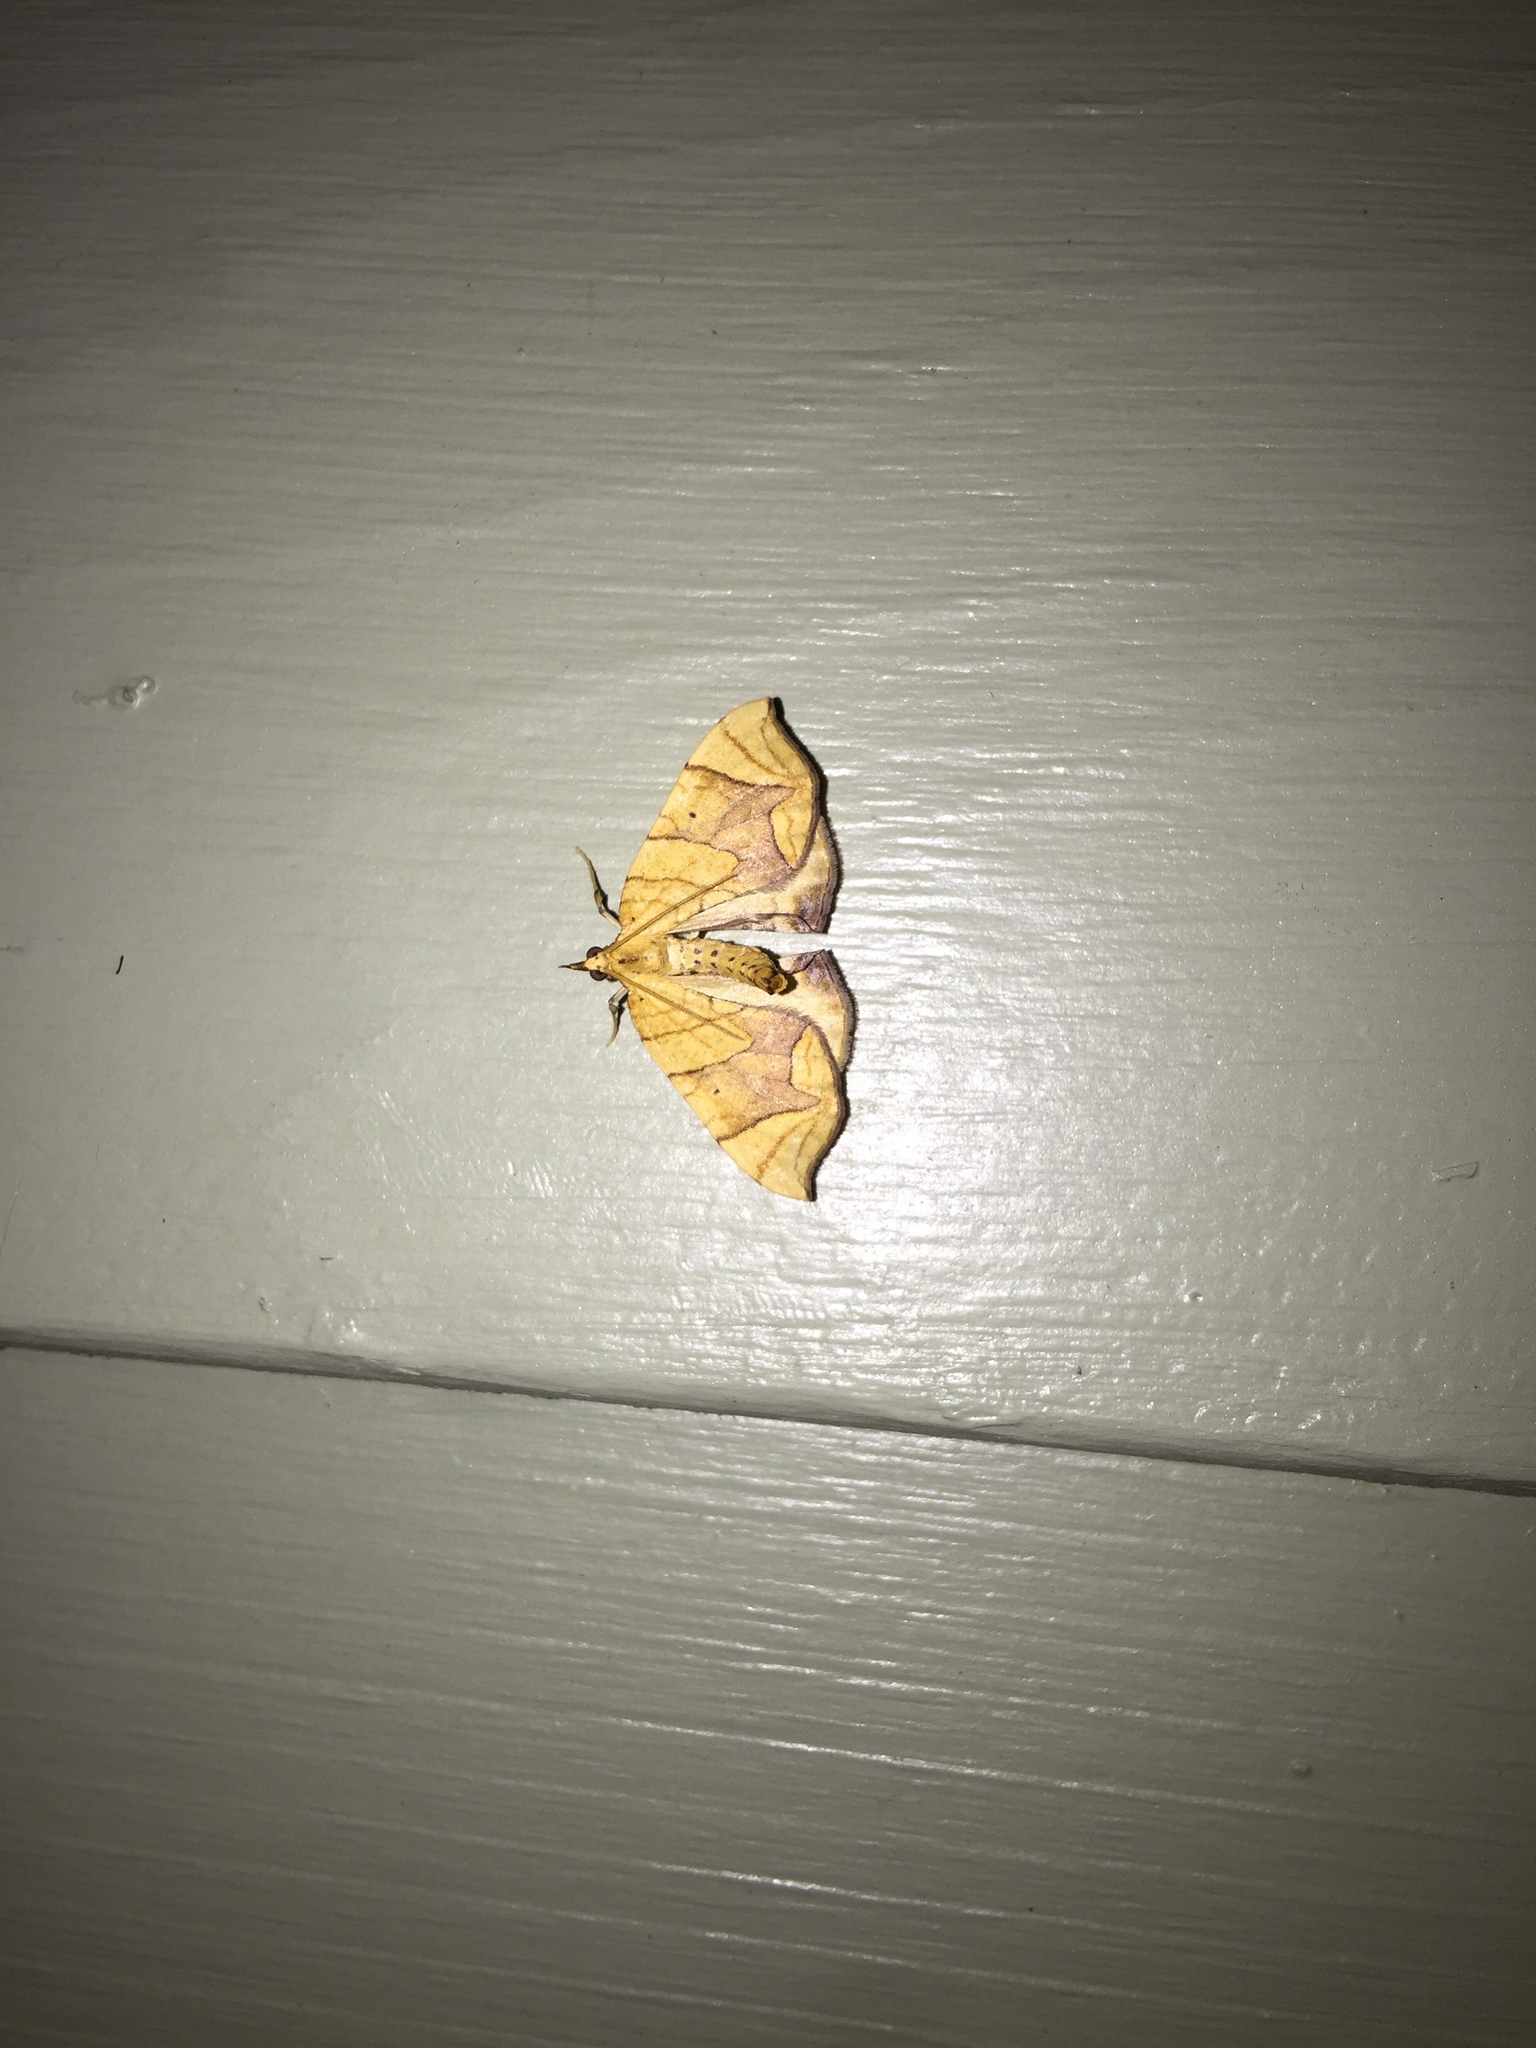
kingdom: Animalia
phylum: Arthropoda
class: Insecta
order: Lepidoptera
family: Geometridae
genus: Eulithis
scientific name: Eulithis diversilineata
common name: Grapevine looper
